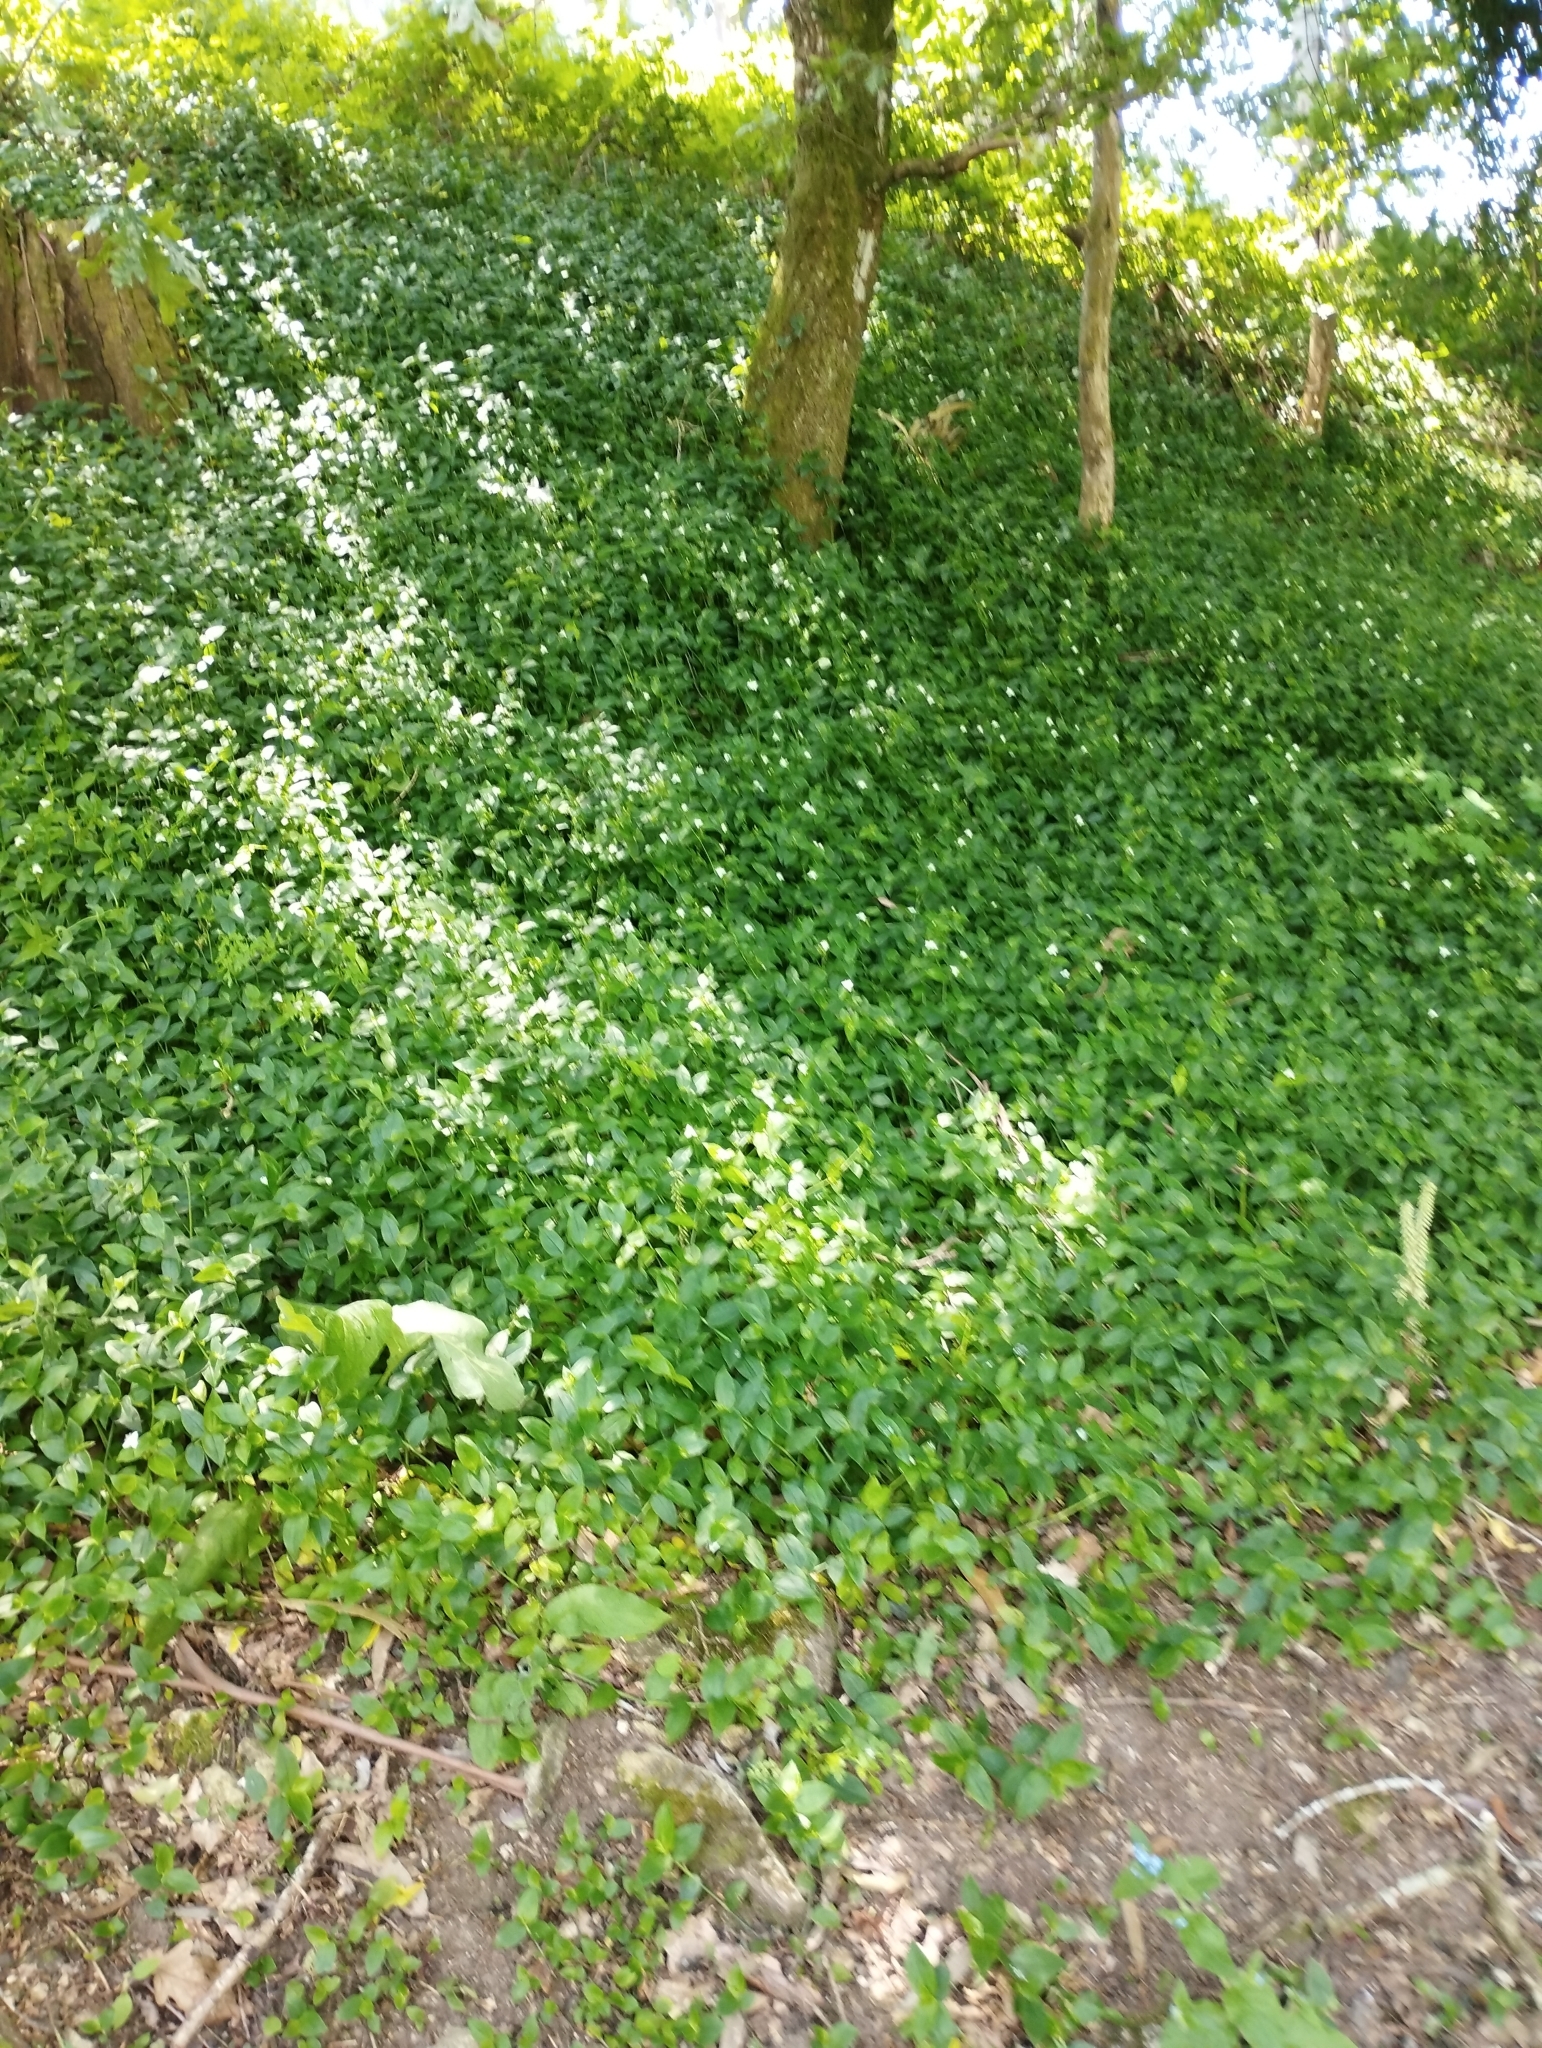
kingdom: Plantae
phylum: Tracheophyta
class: Liliopsida
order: Commelinales
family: Commelinaceae
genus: Tradescantia
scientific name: Tradescantia fluminensis
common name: Wandering-jew
